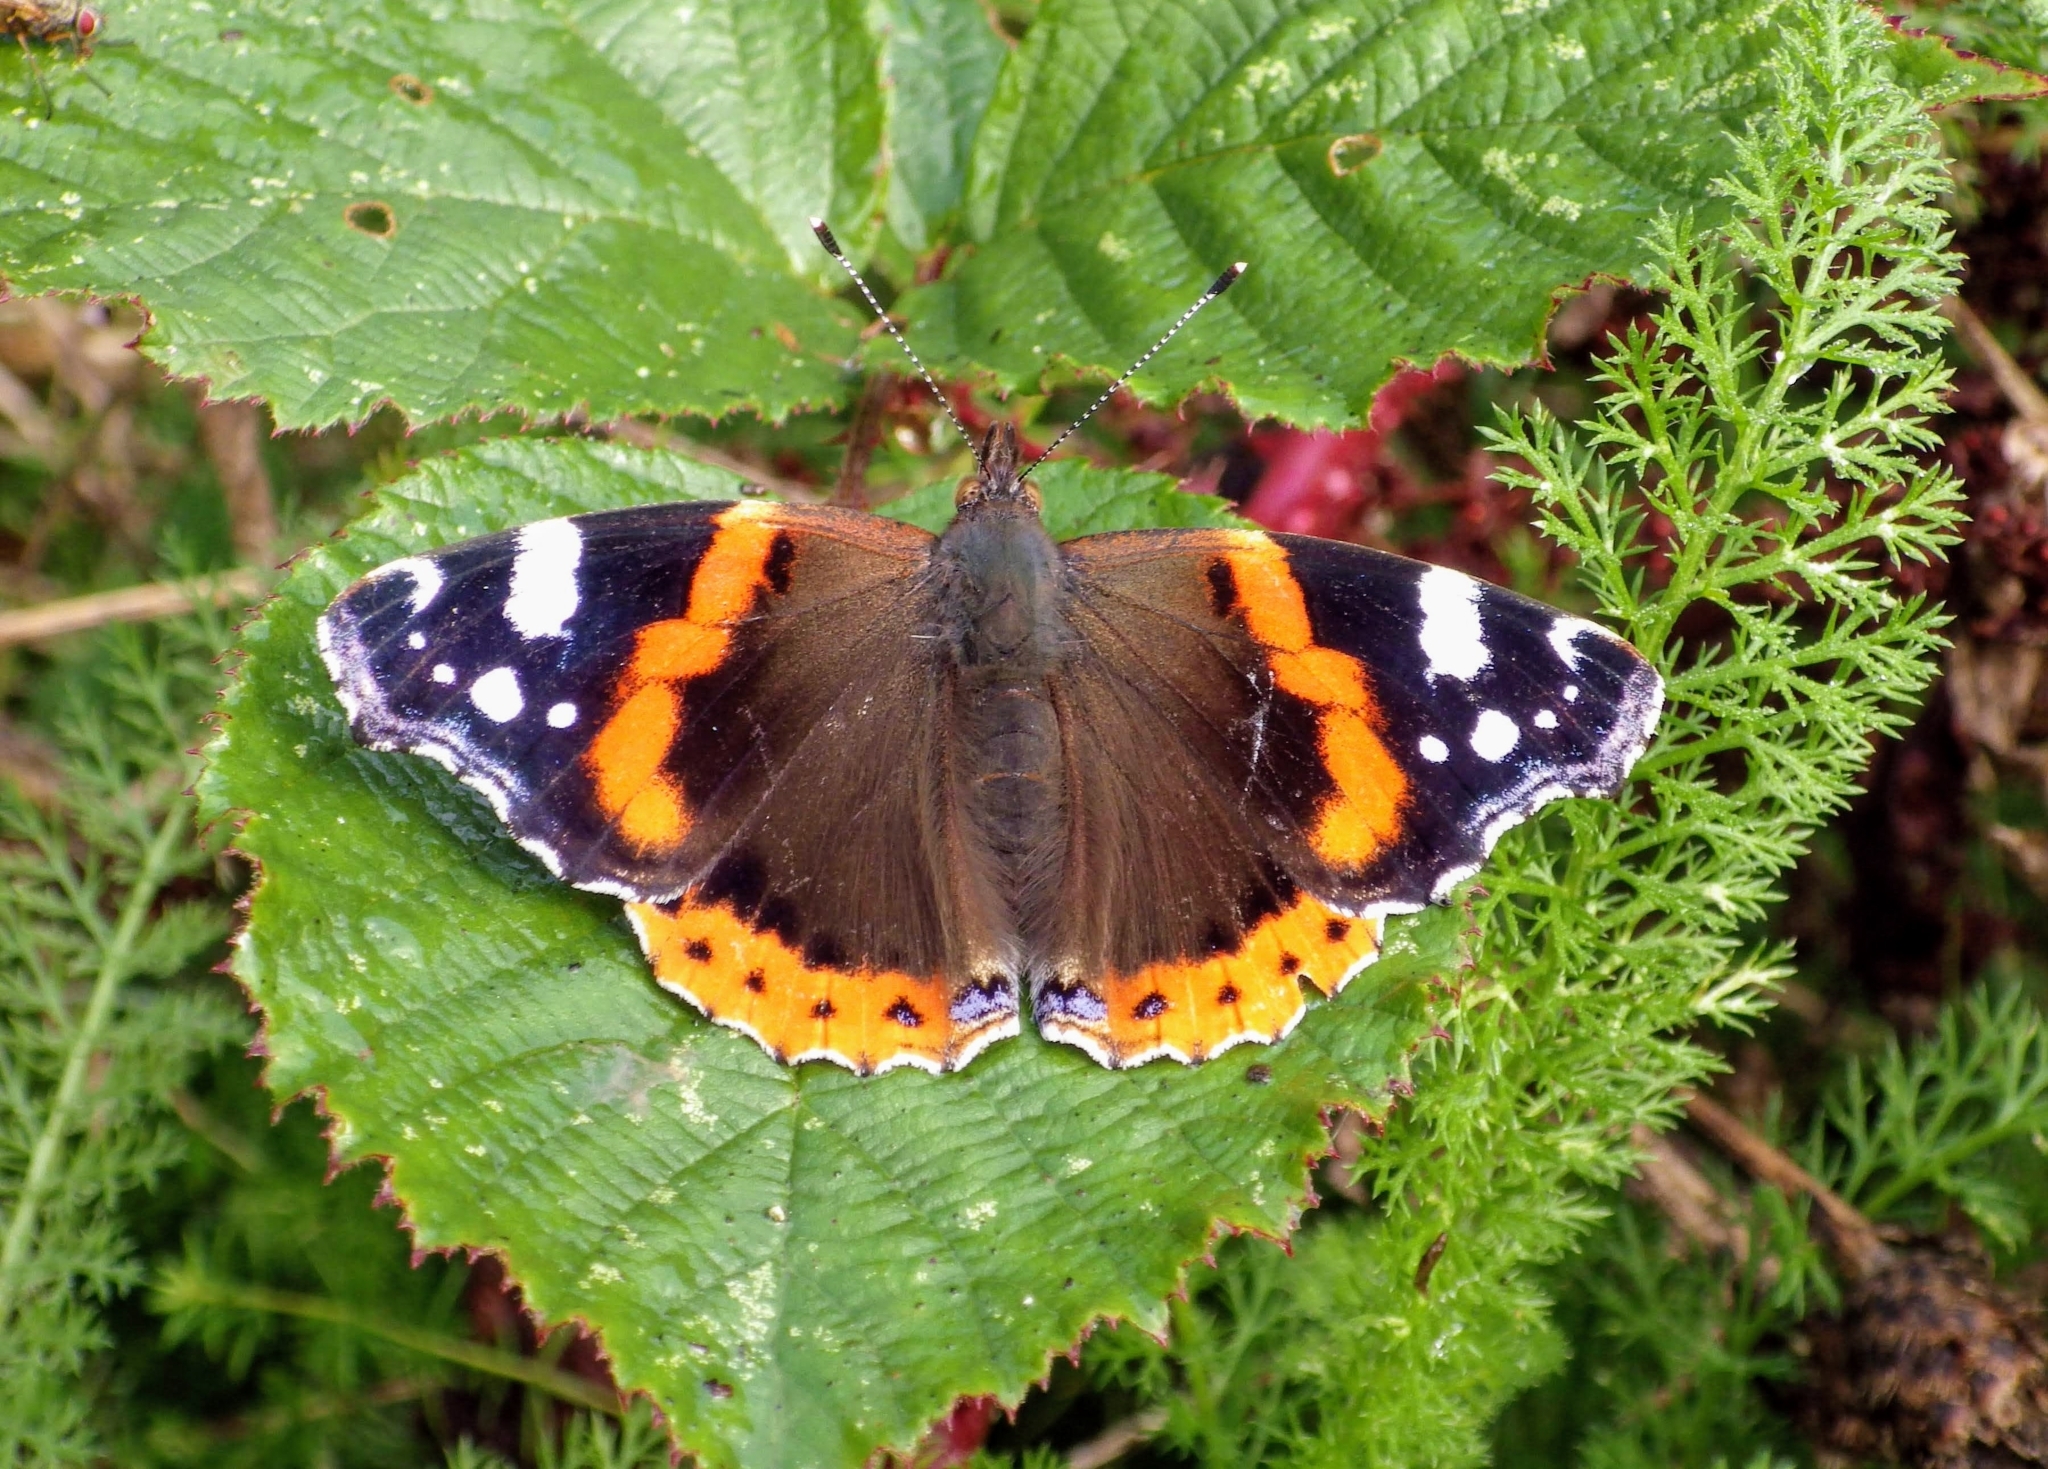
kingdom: Animalia
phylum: Arthropoda
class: Insecta
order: Lepidoptera
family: Nymphalidae
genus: Vanessa
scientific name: Vanessa atalanta
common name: Red admiral
